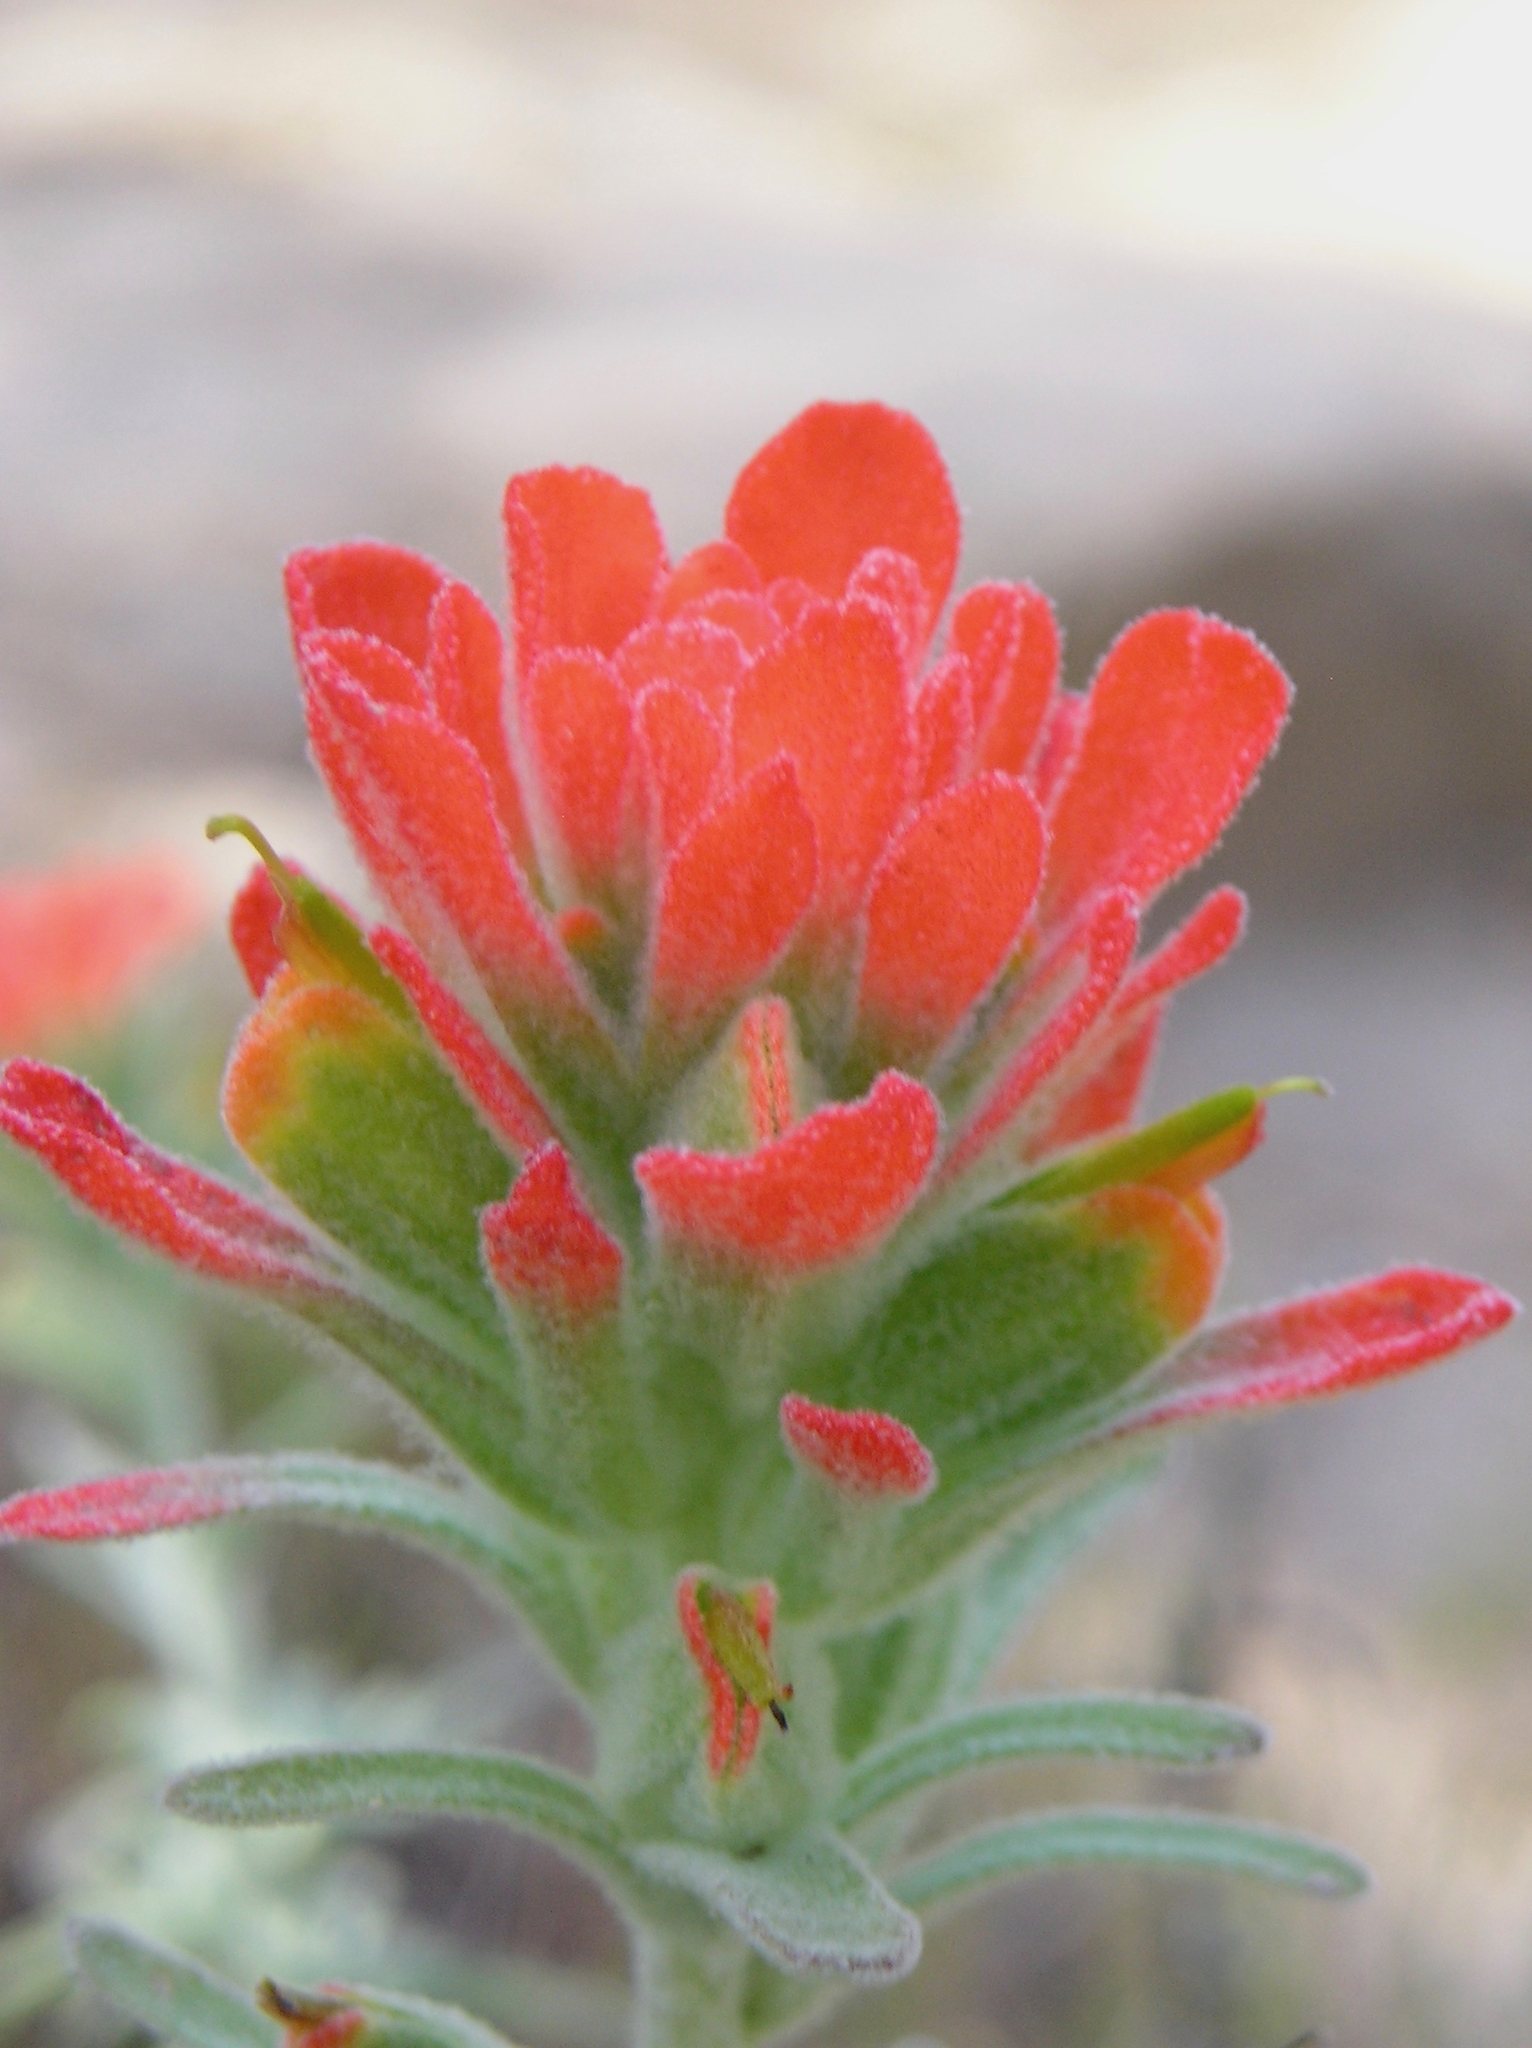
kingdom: Plantae
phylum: Tracheophyta
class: Magnoliopsida
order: Lamiales
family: Orobanchaceae
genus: Castilleja
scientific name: Castilleja foliolosa
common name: Woolly indian paintbrush
